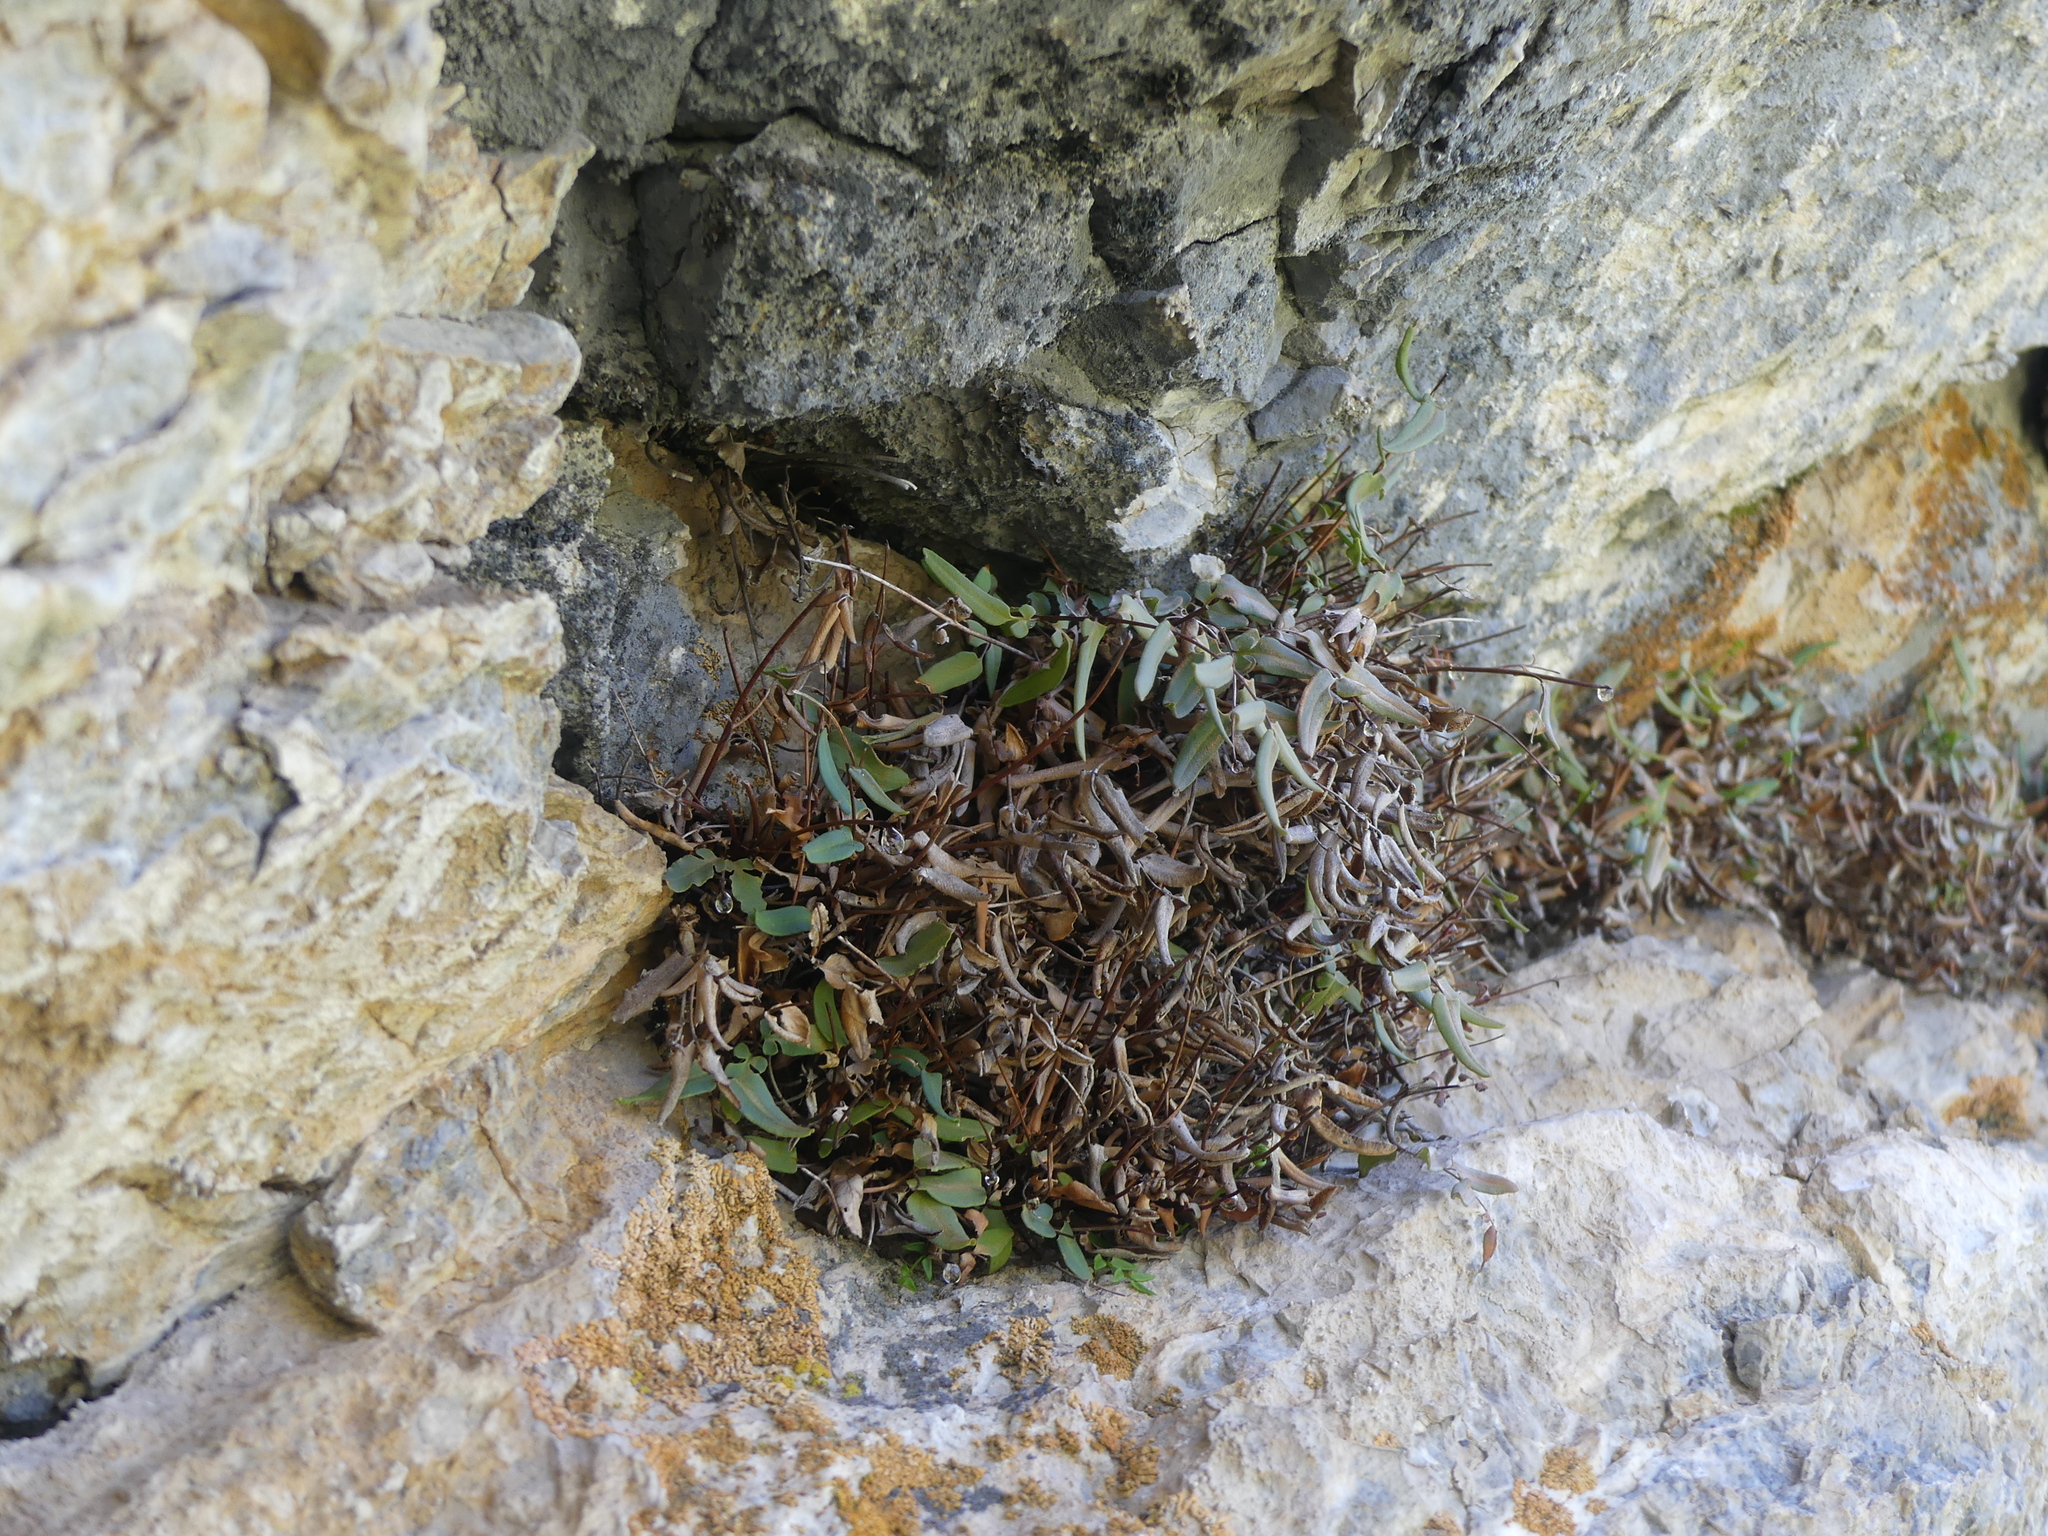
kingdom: Plantae
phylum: Tracheophyta
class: Polypodiopsida
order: Polypodiales
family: Pteridaceae
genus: Pellaea
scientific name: Pellaea glabella
